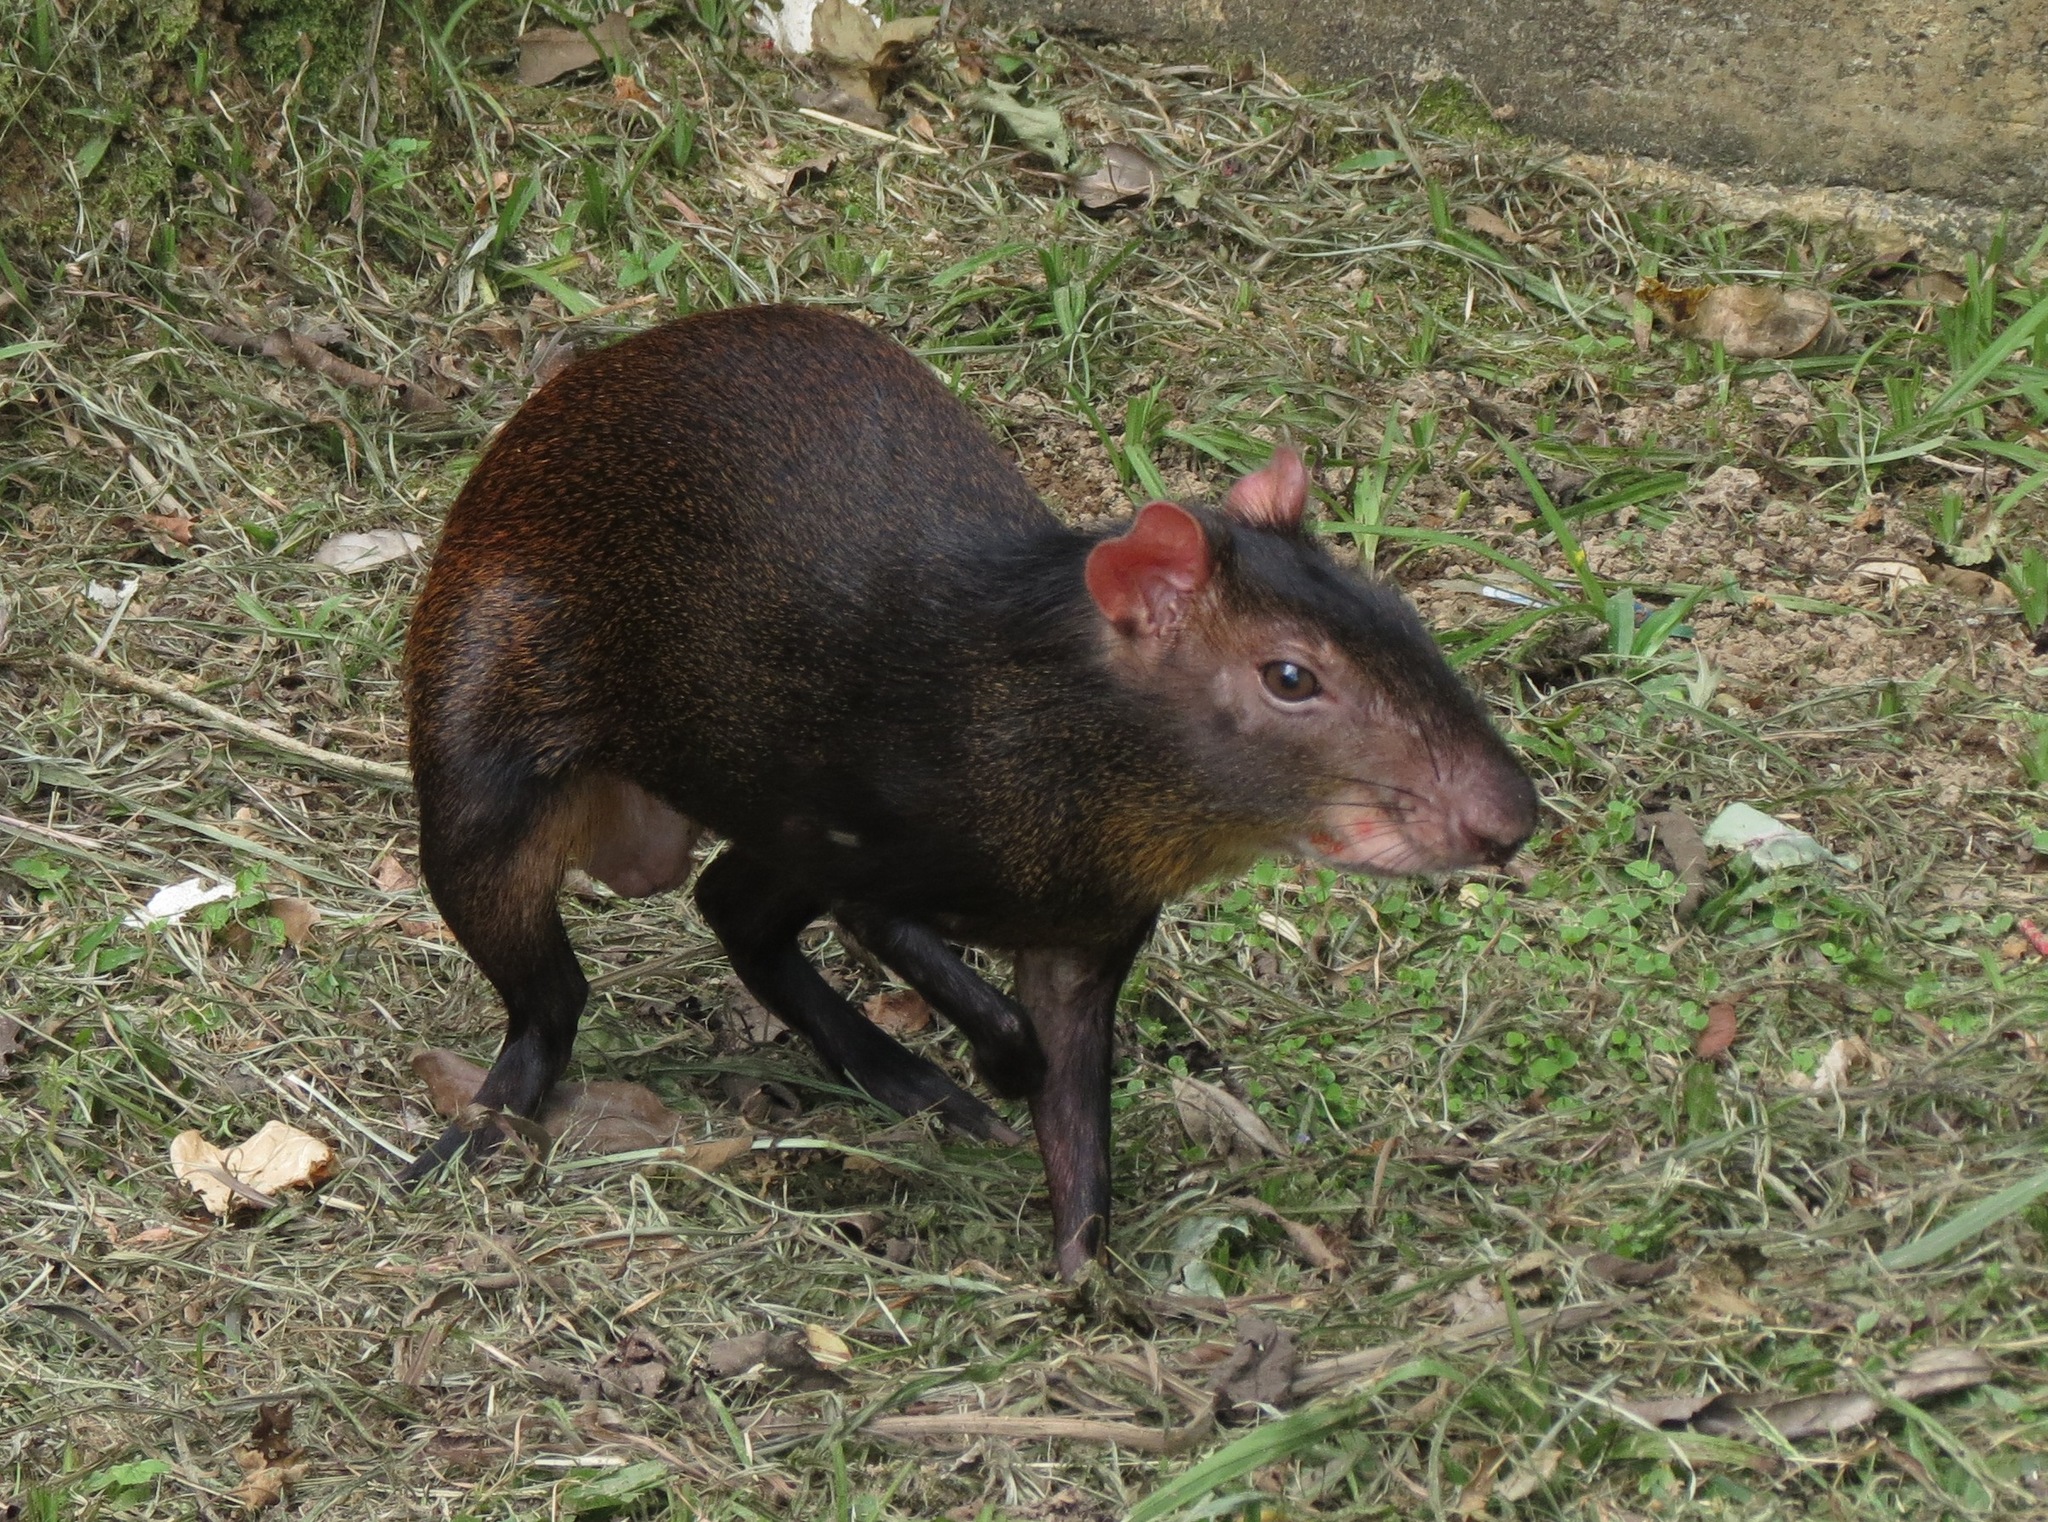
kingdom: Animalia
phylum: Chordata
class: Mammalia
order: Rodentia
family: Dasyproctidae
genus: Dasyprocta
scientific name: Dasyprocta leporina
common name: Red-rumped agouti
